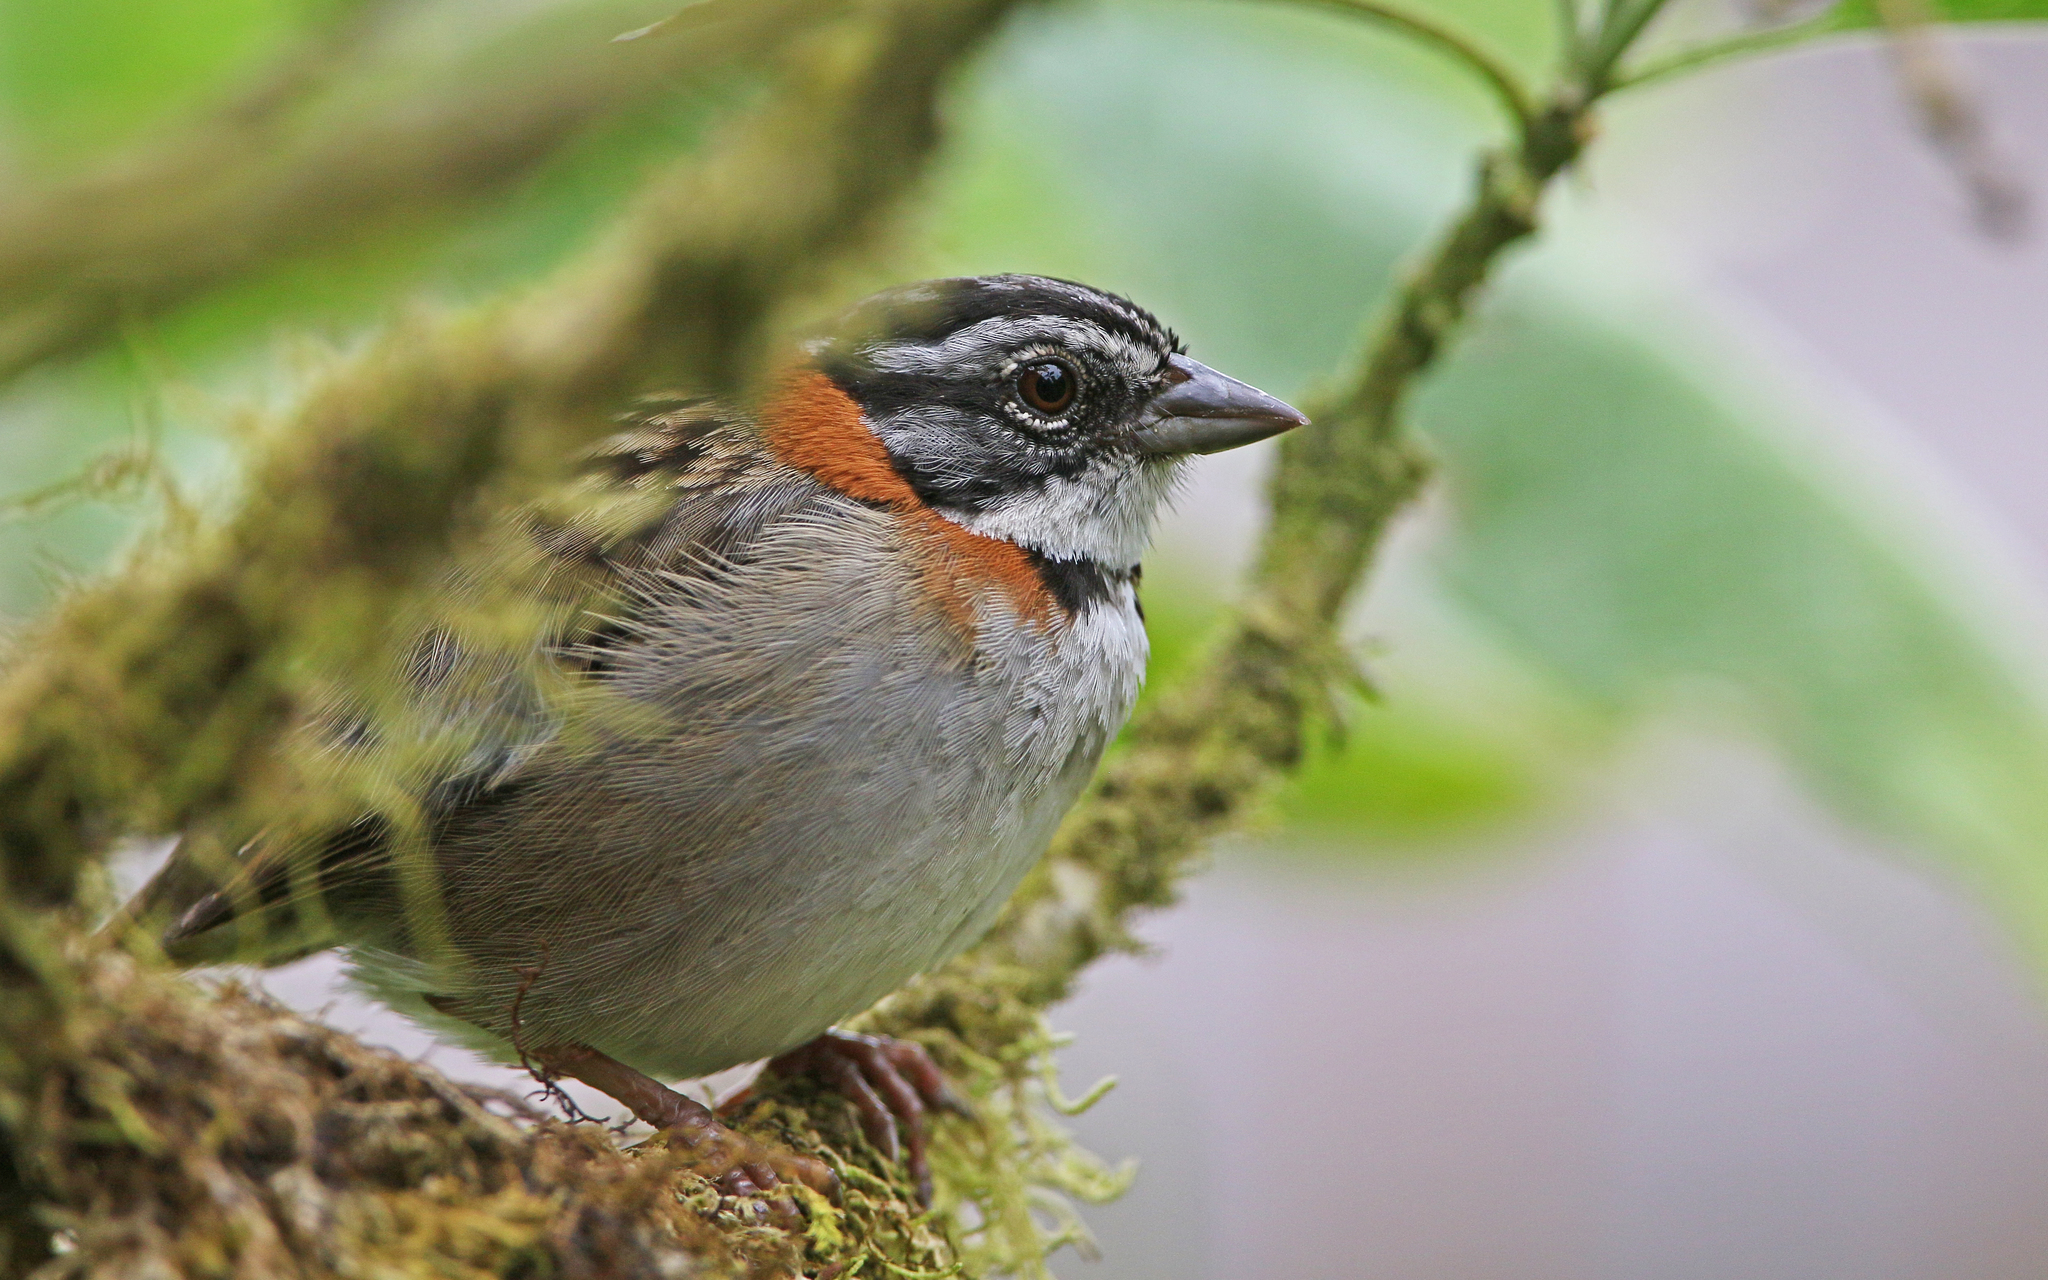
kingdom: Animalia
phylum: Chordata
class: Aves
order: Passeriformes
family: Passerellidae
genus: Zonotrichia
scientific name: Zonotrichia capensis
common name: Rufous-collared sparrow
